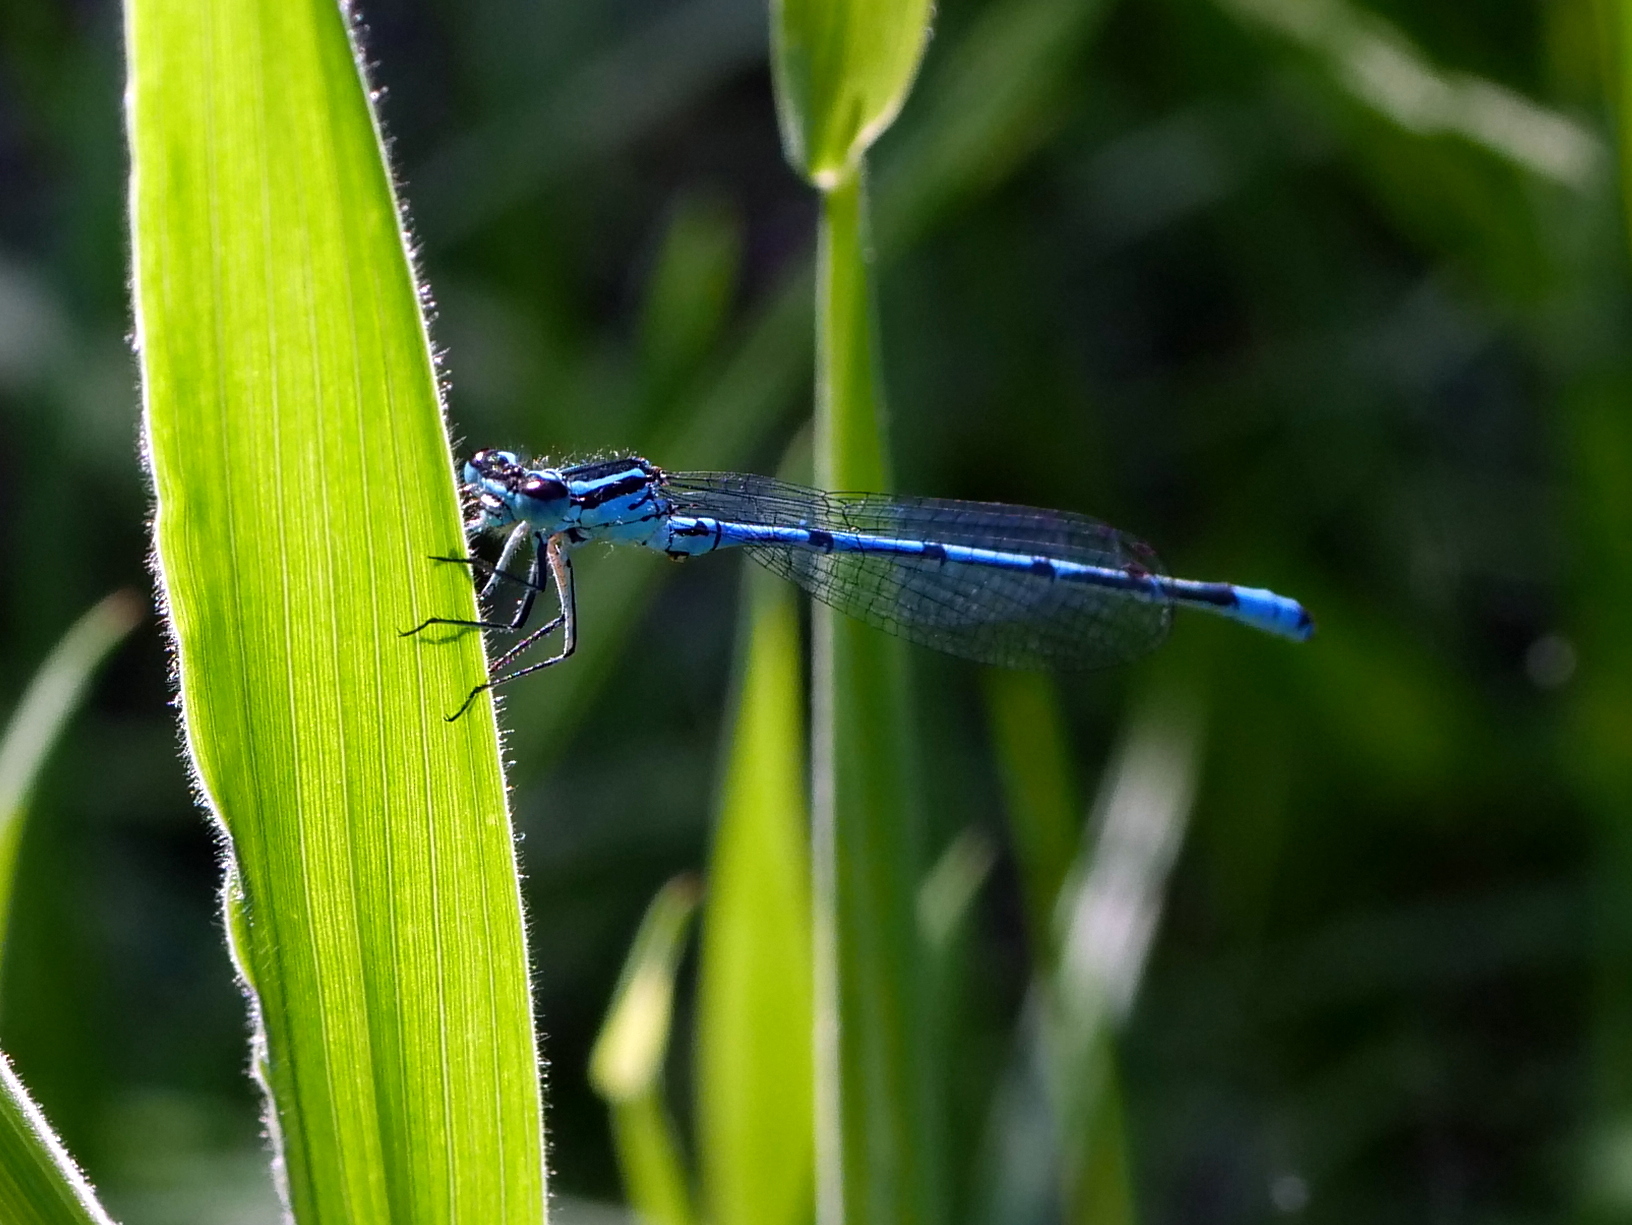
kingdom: Animalia
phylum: Arthropoda
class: Insecta
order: Odonata
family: Coenagrionidae
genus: Coenagrion
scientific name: Coenagrion puella
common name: Azure damselfly
